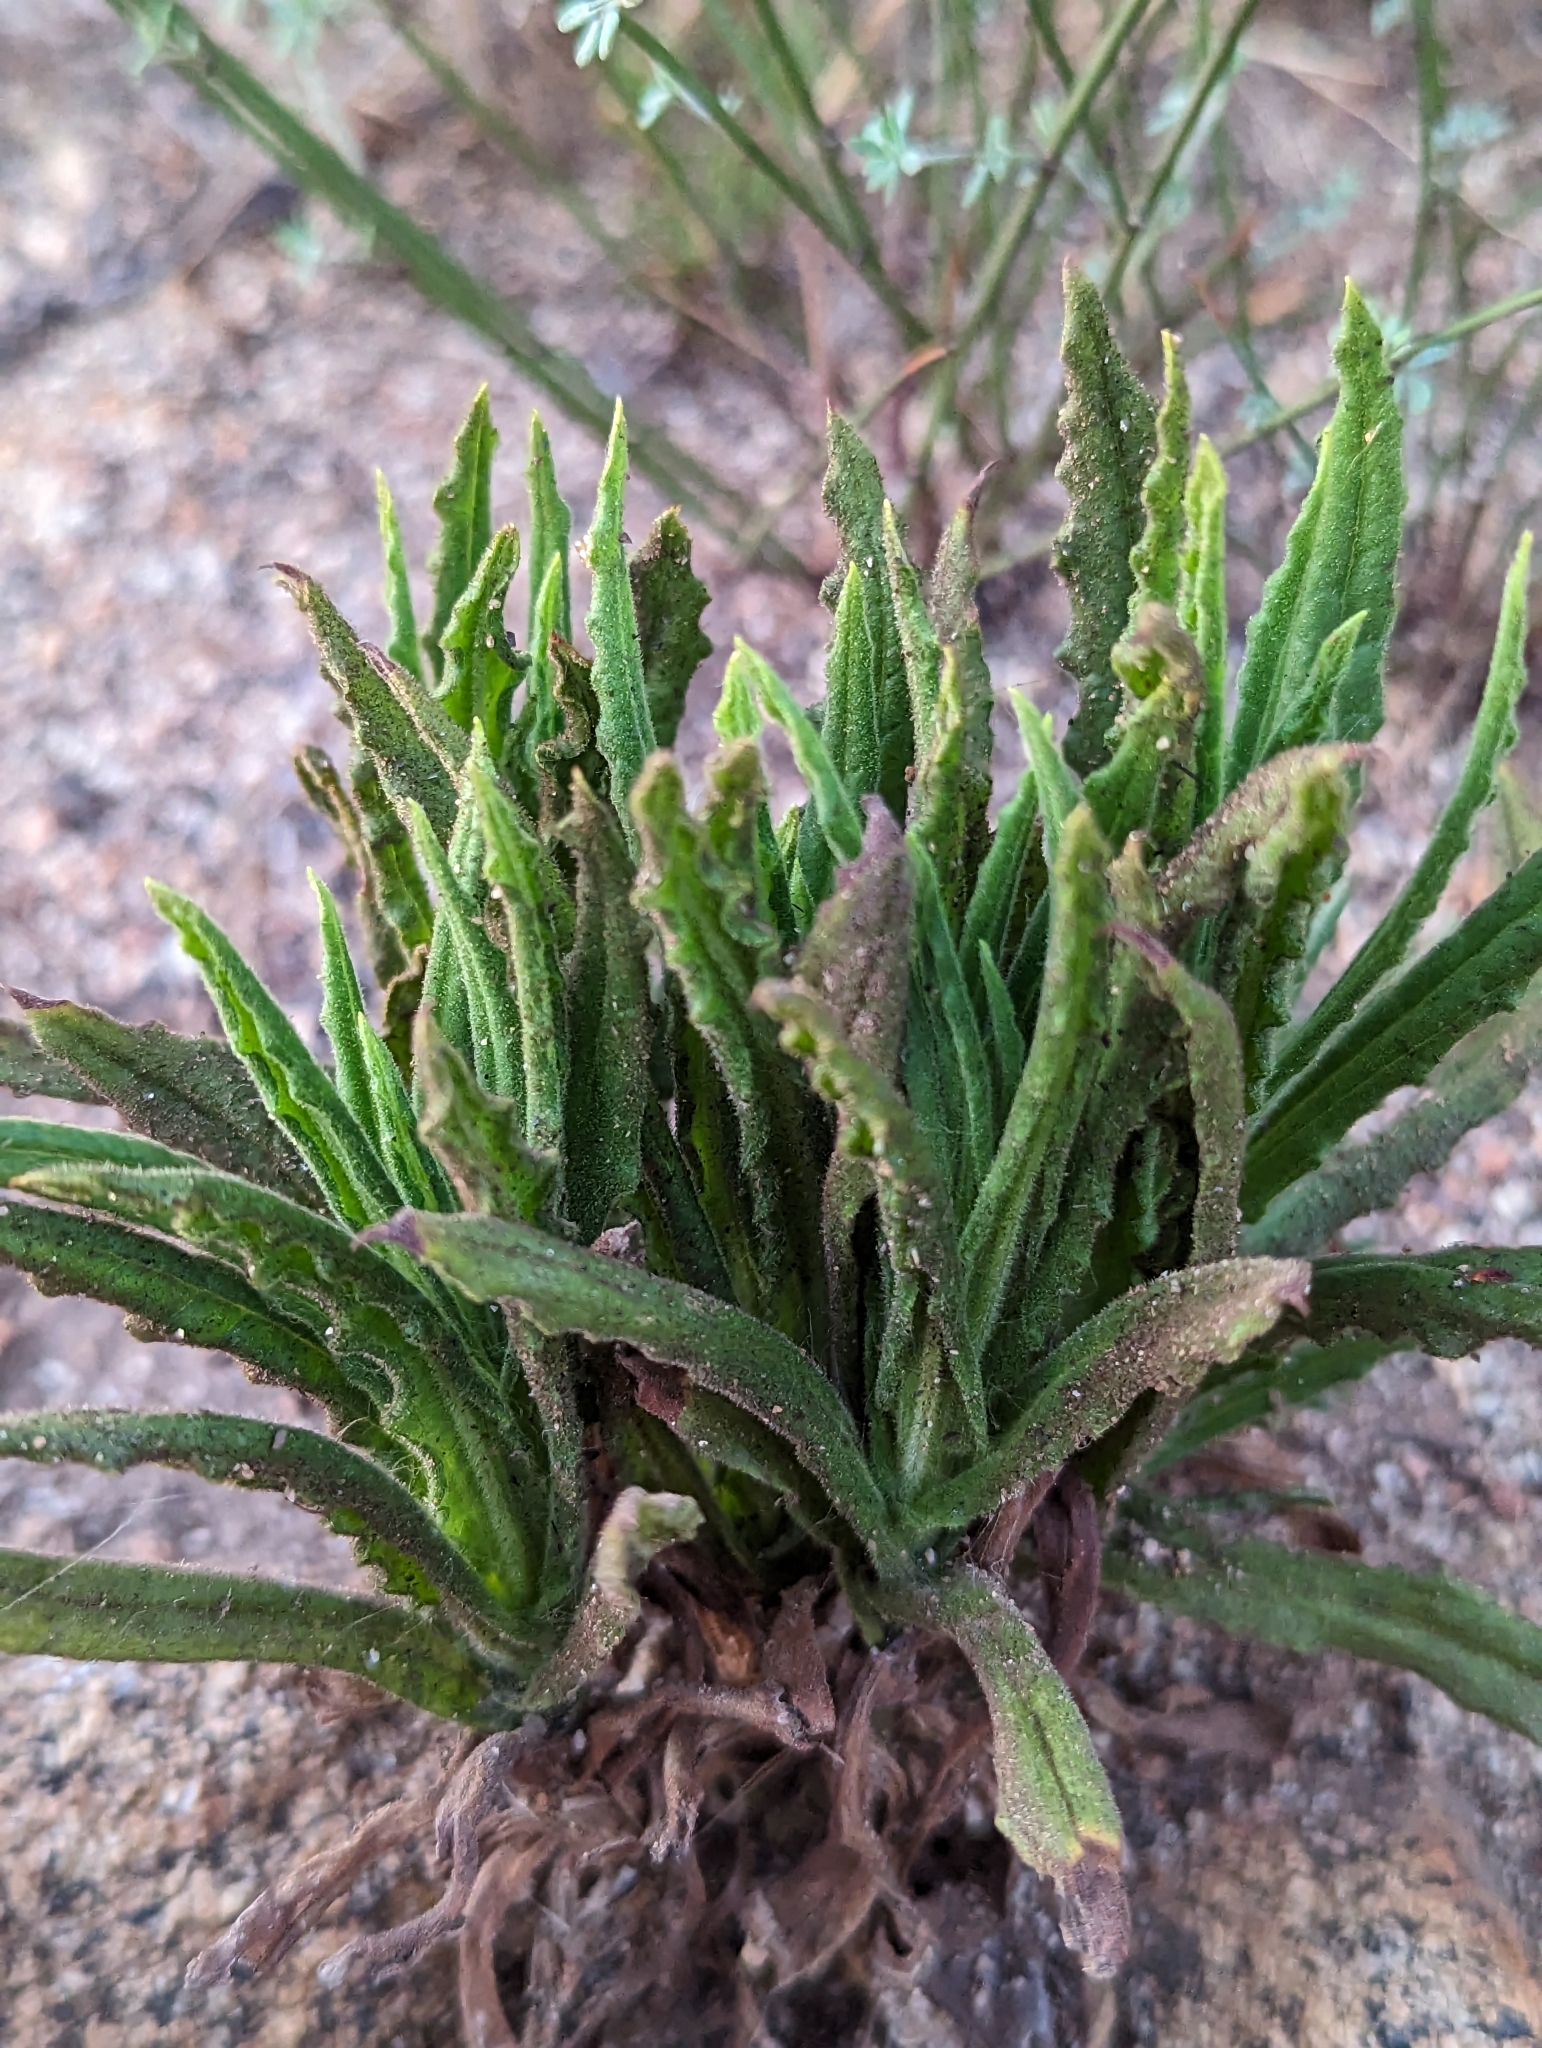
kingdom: Plantae
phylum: Tracheophyta
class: Magnoliopsida
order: Asterales
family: Asteraceae
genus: Pseudognaphalium
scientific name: Pseudognaphalium californicum
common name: California rabbit-tobacco
